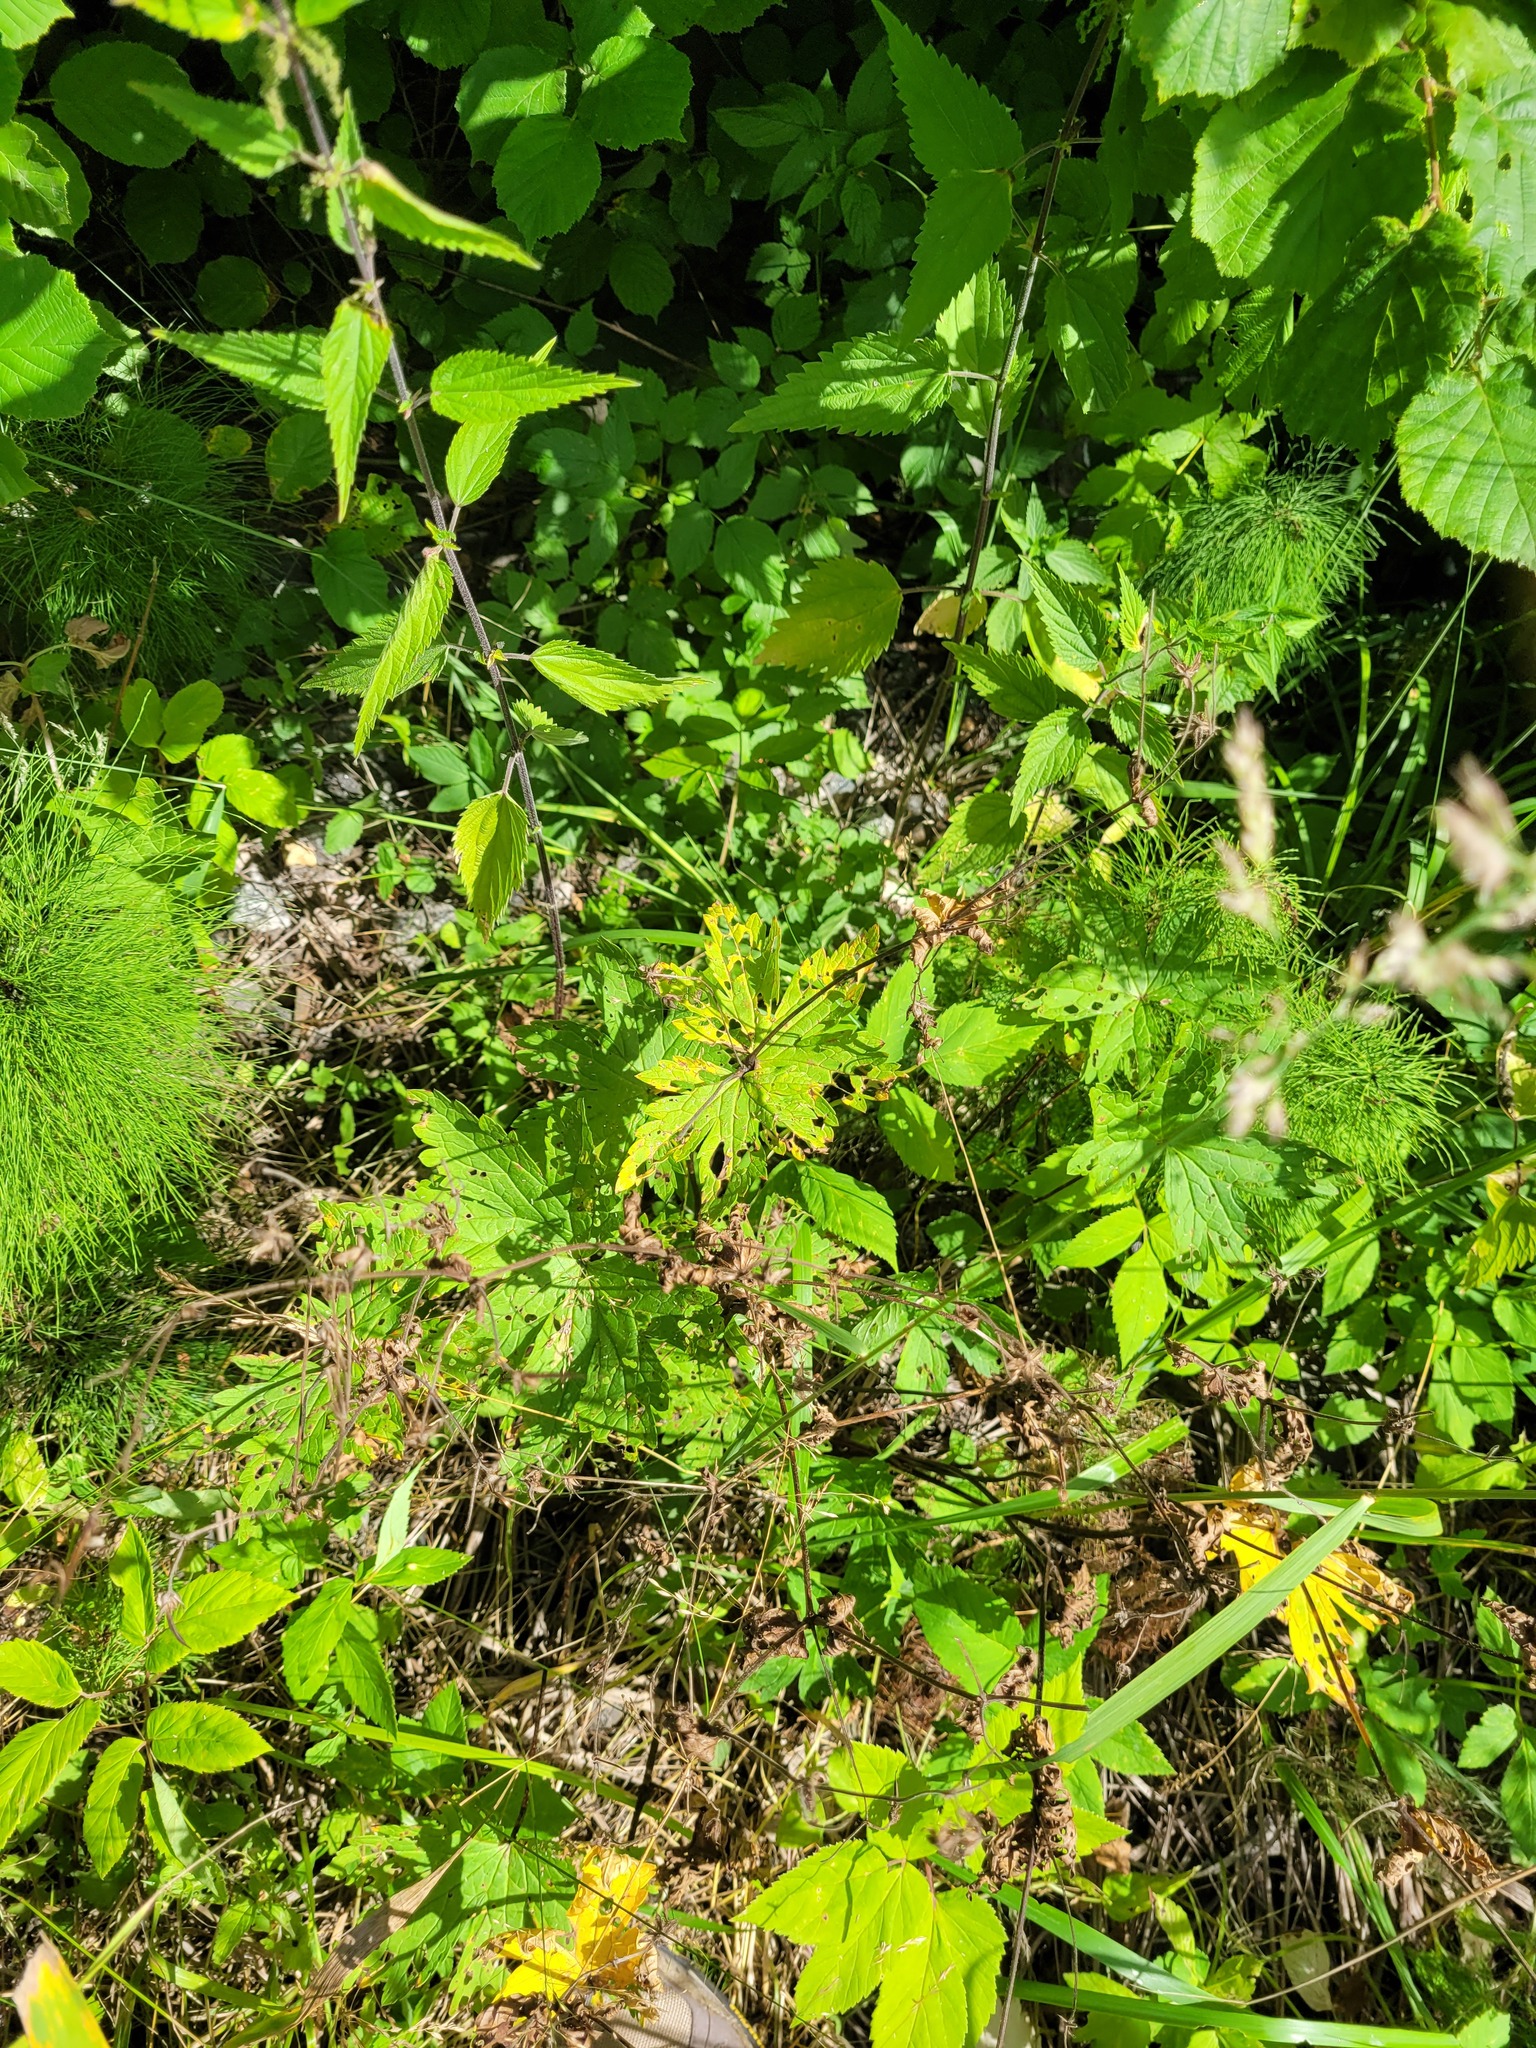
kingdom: Plantae
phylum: Tracheophyta
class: Magnoliopsida
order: Geraniales
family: Geraniaceae
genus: Geranium
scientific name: Geranium sylvaticum
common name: Wood crane's-bill
